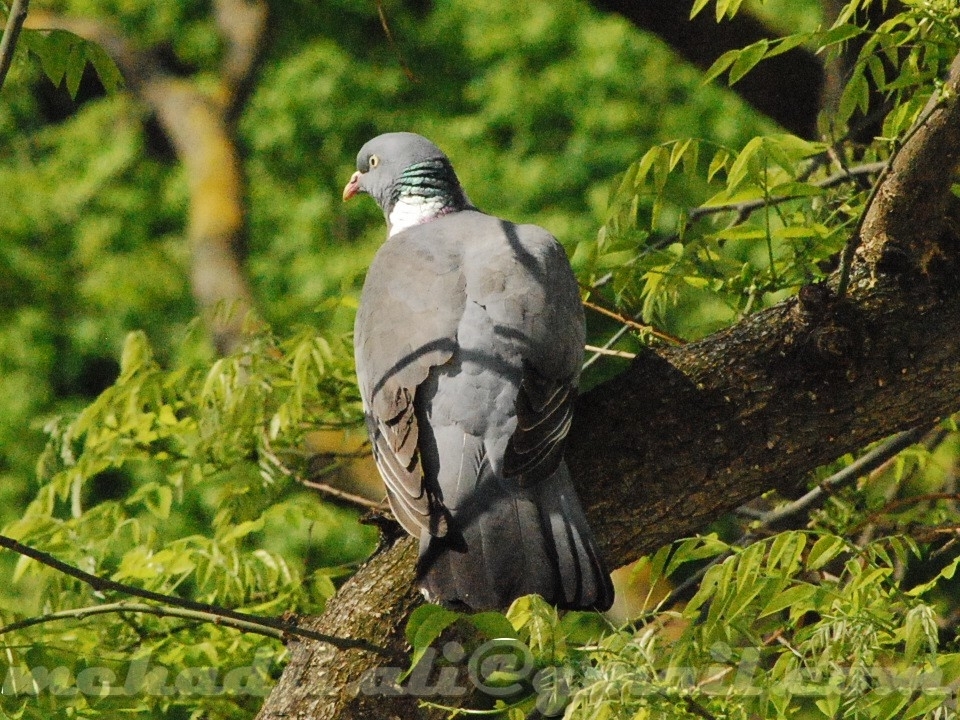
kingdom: Animalia
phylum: Chordata
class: Aves
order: Columbiformes
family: Columbidae
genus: Columba
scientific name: Columba palumbus
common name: Common wood pigeon
